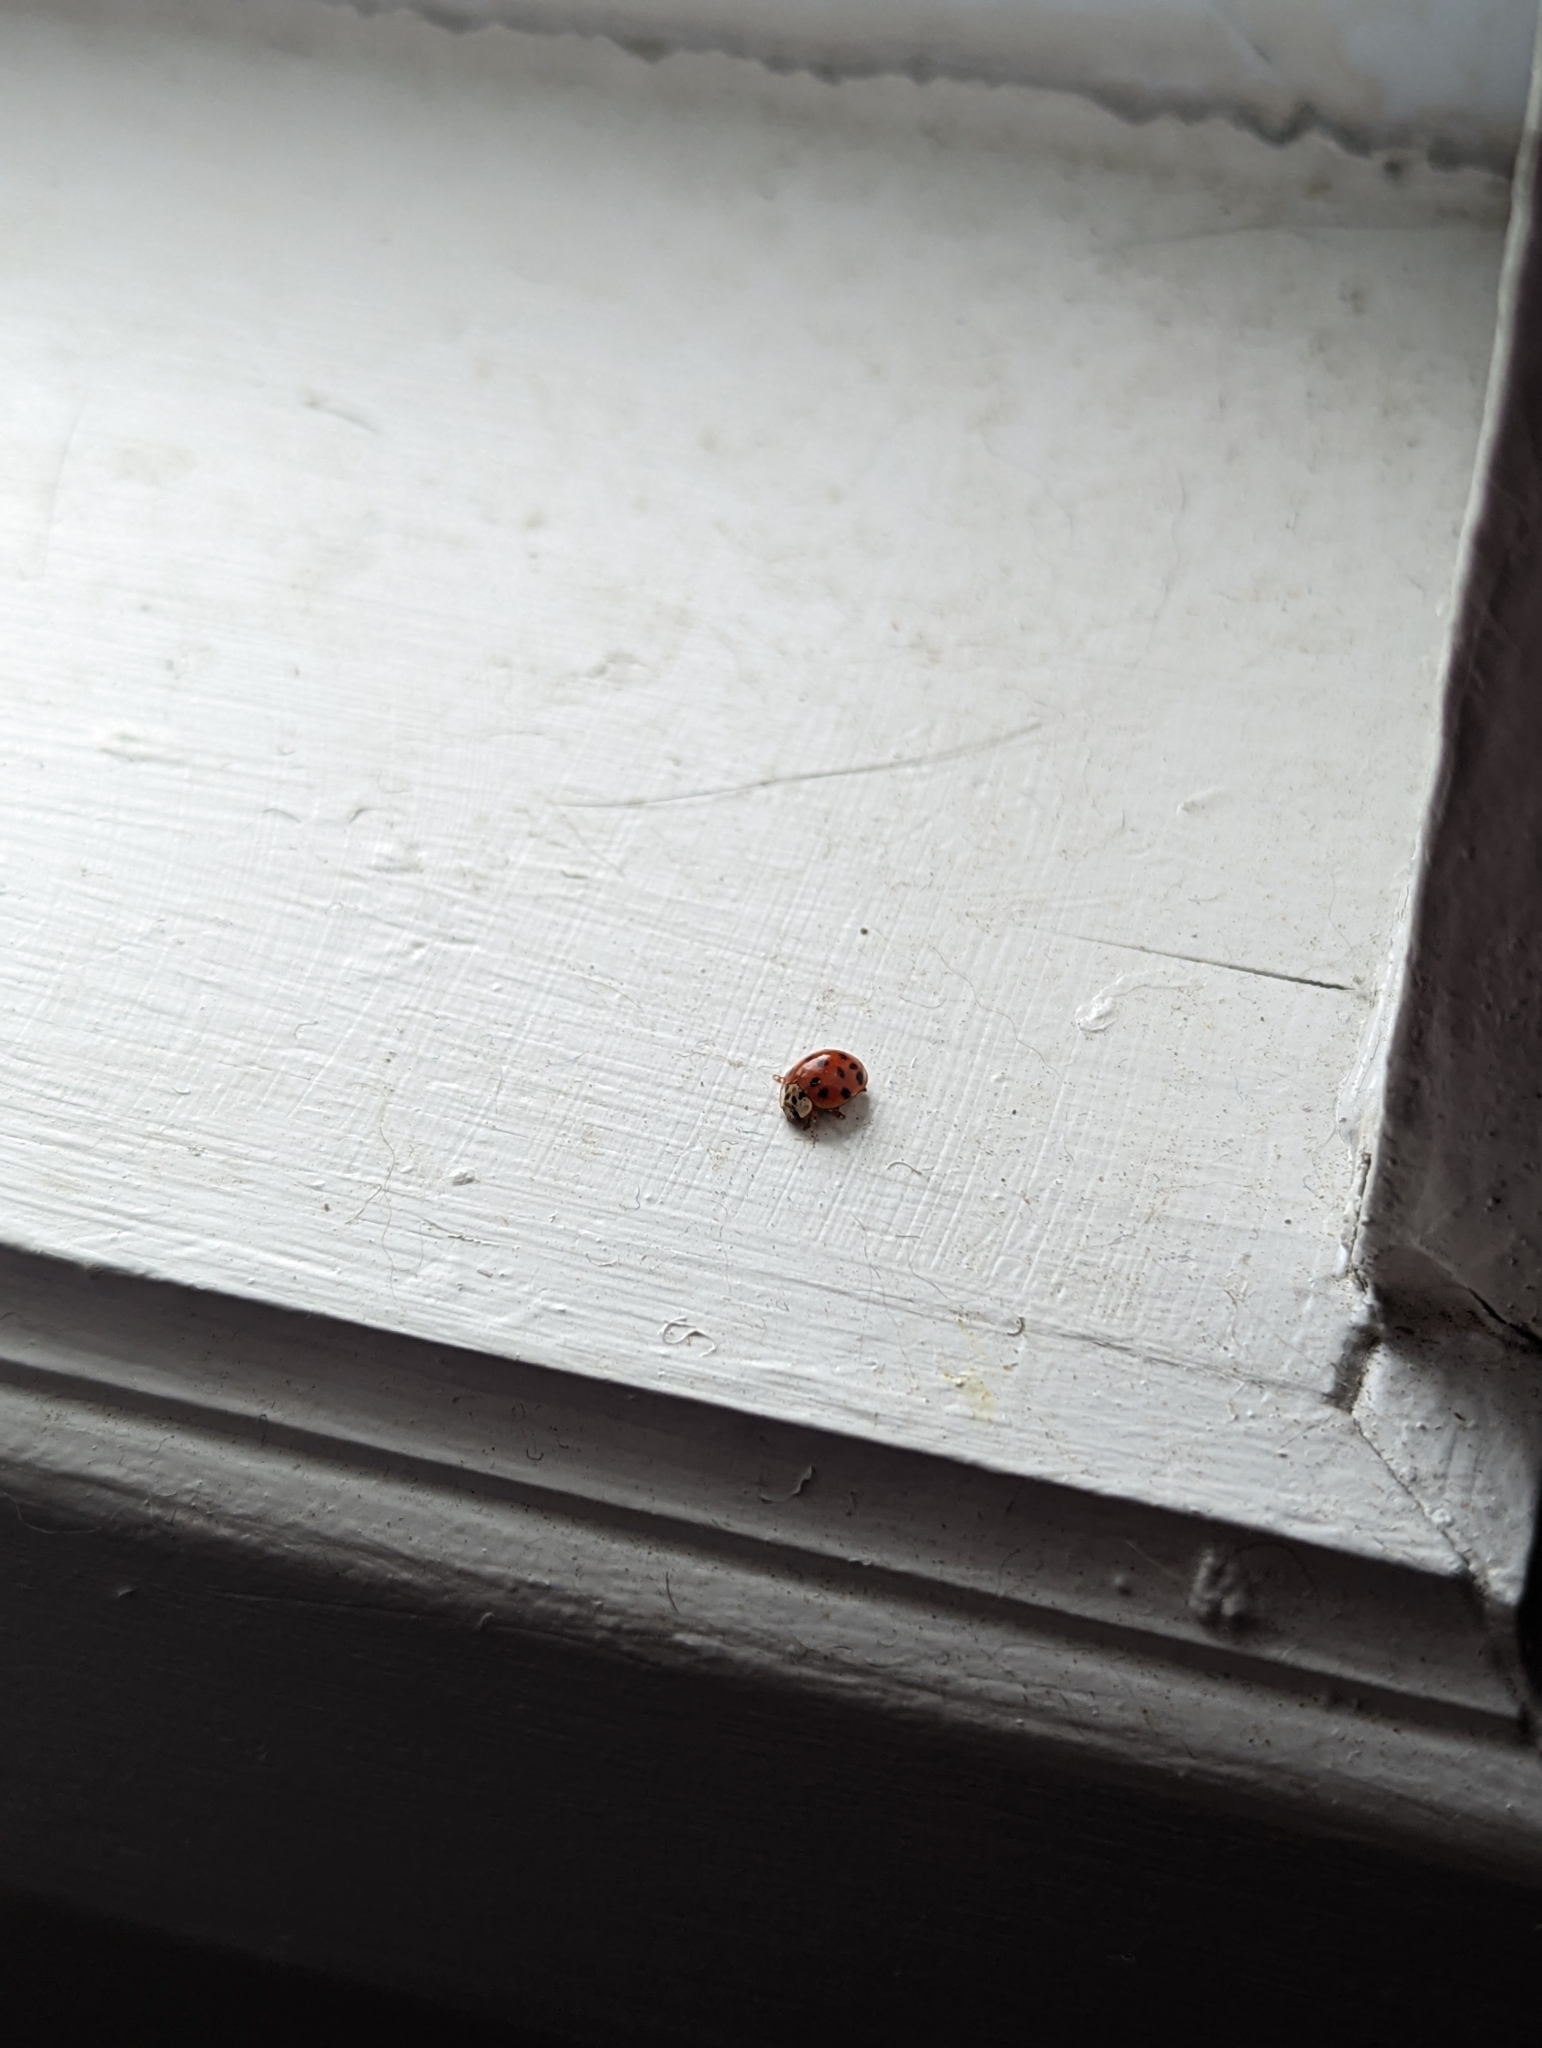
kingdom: Animalia
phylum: Arthropoda
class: Insecta
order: Coleoptera
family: Coccinellidae
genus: Harmonia
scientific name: Harmonia axyridis
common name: Harlequin ladybird
